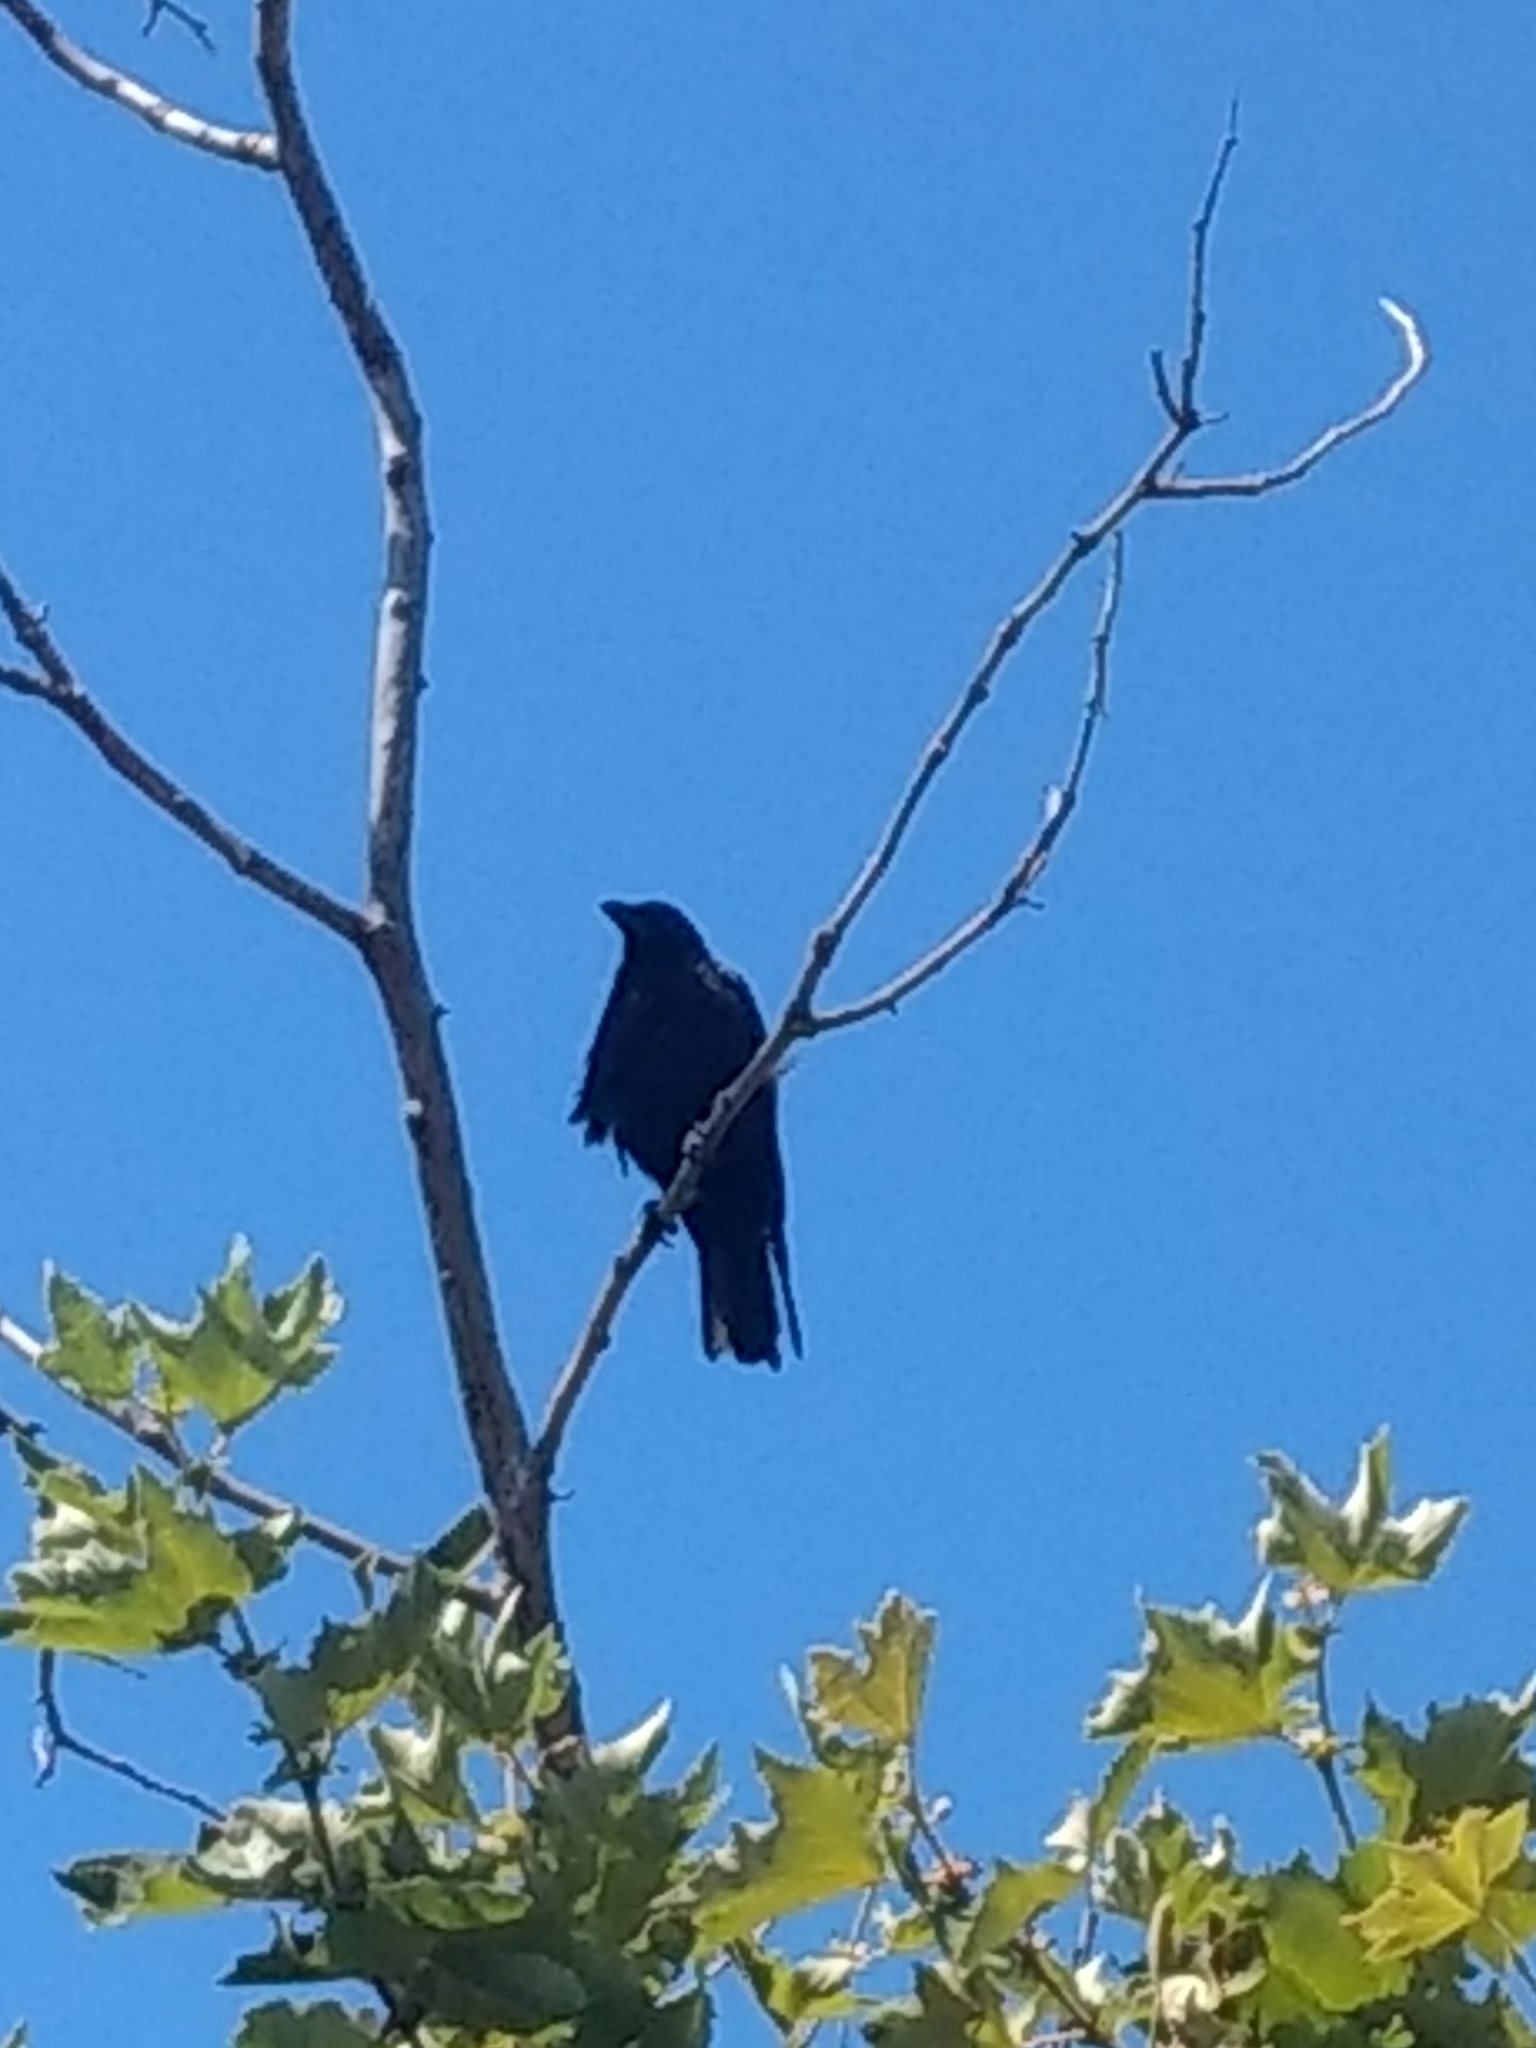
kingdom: Animalia
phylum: Chordata
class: Aves
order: Passeriformes
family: Corvidae
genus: Corvus
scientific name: Corvus brachyrhynchos
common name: American crow
